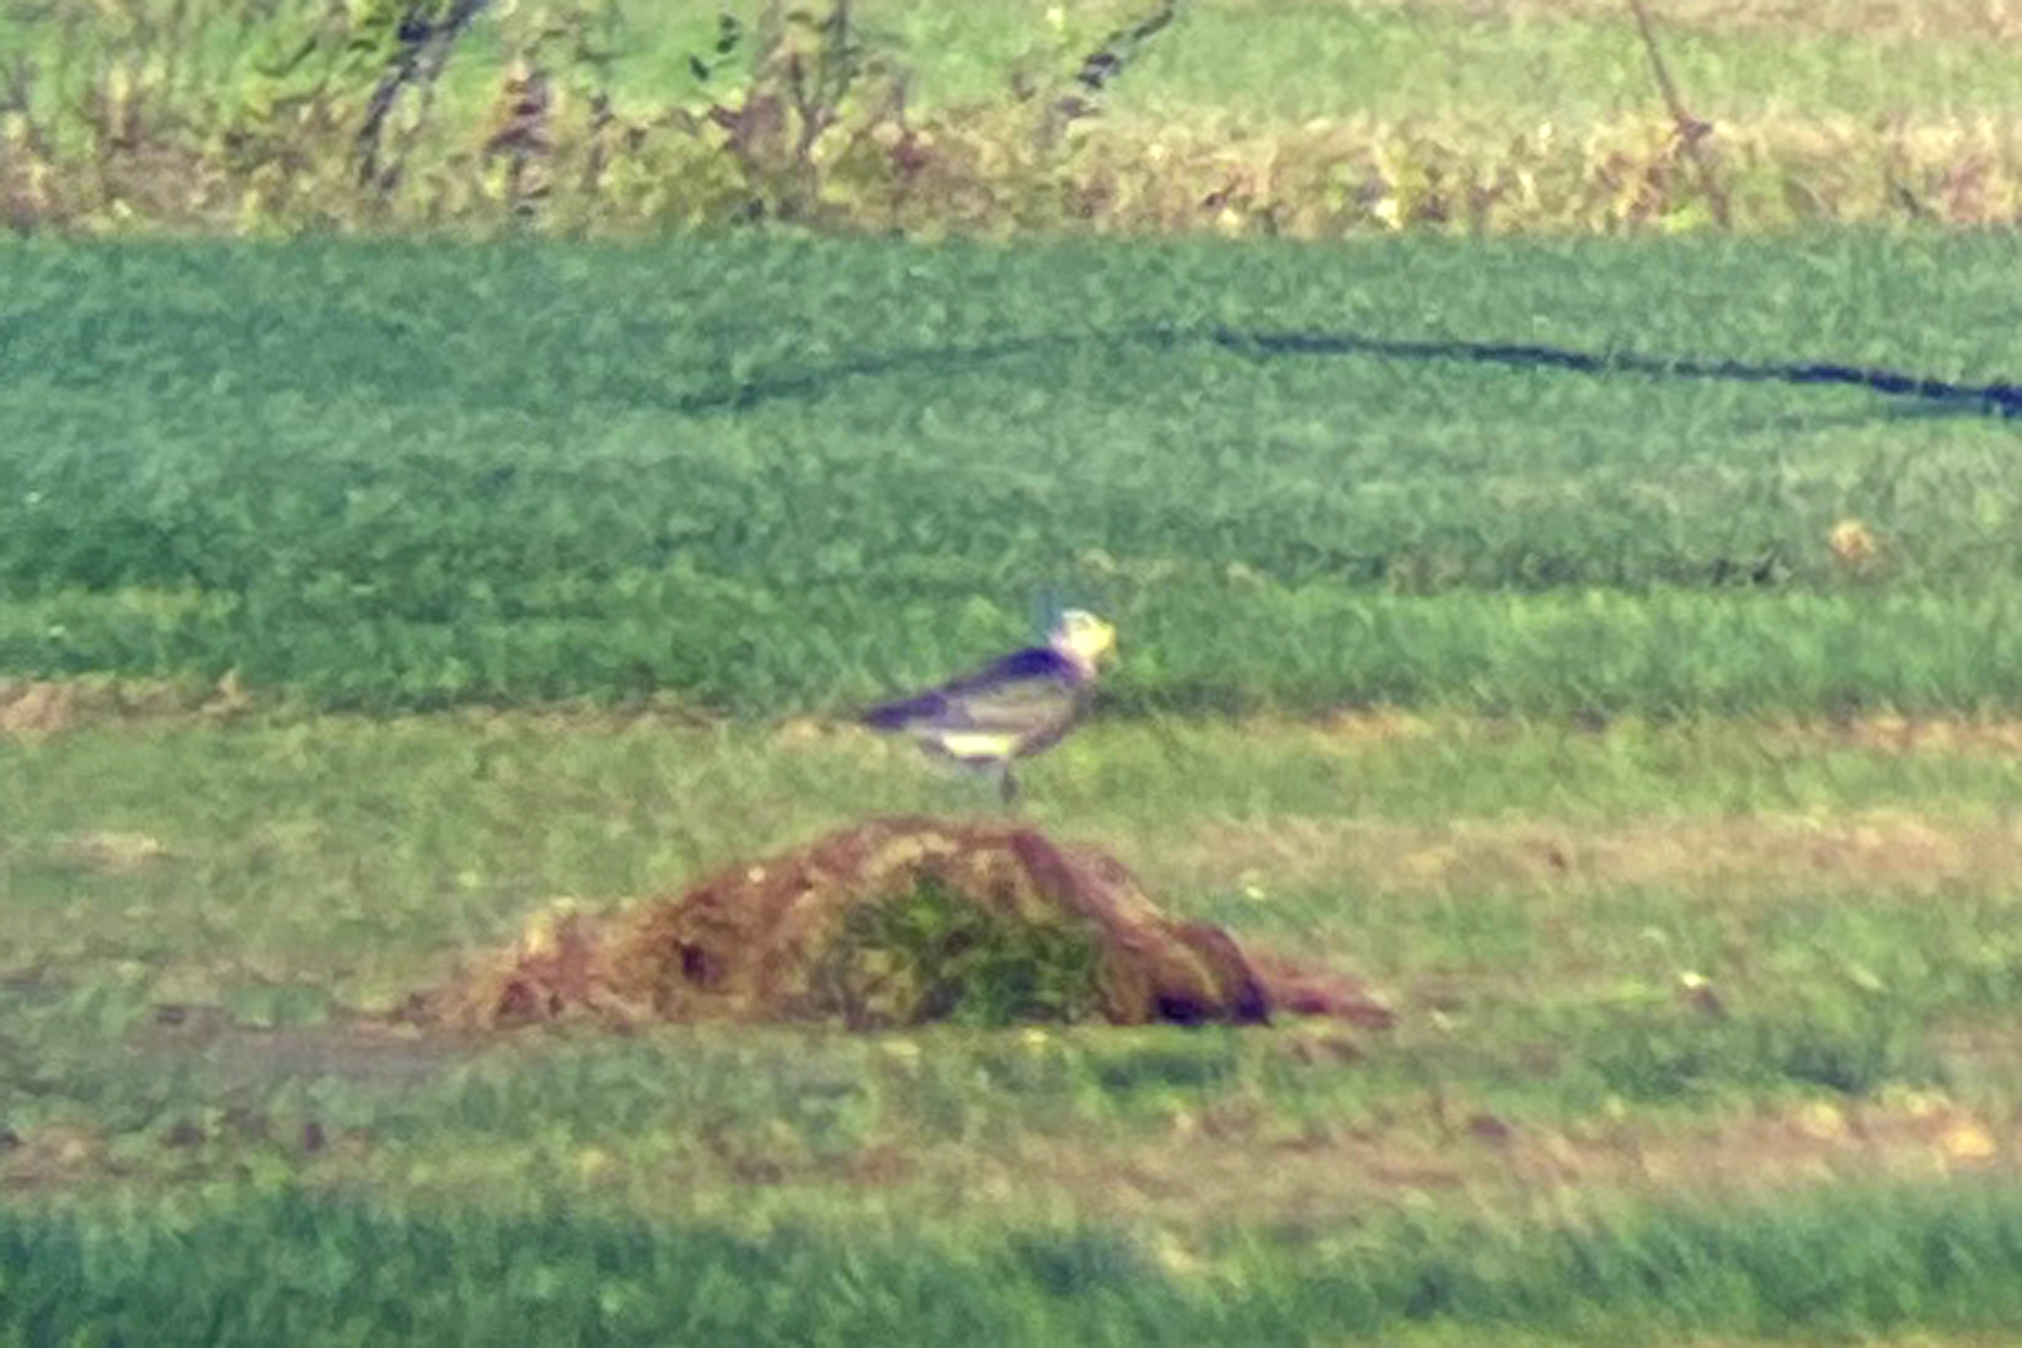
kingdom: Animalia
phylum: Chordata
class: Aves
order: Charadriiformes
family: Charadriidae
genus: Pluvialis
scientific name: Pluvialis dominica
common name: American golden plover
